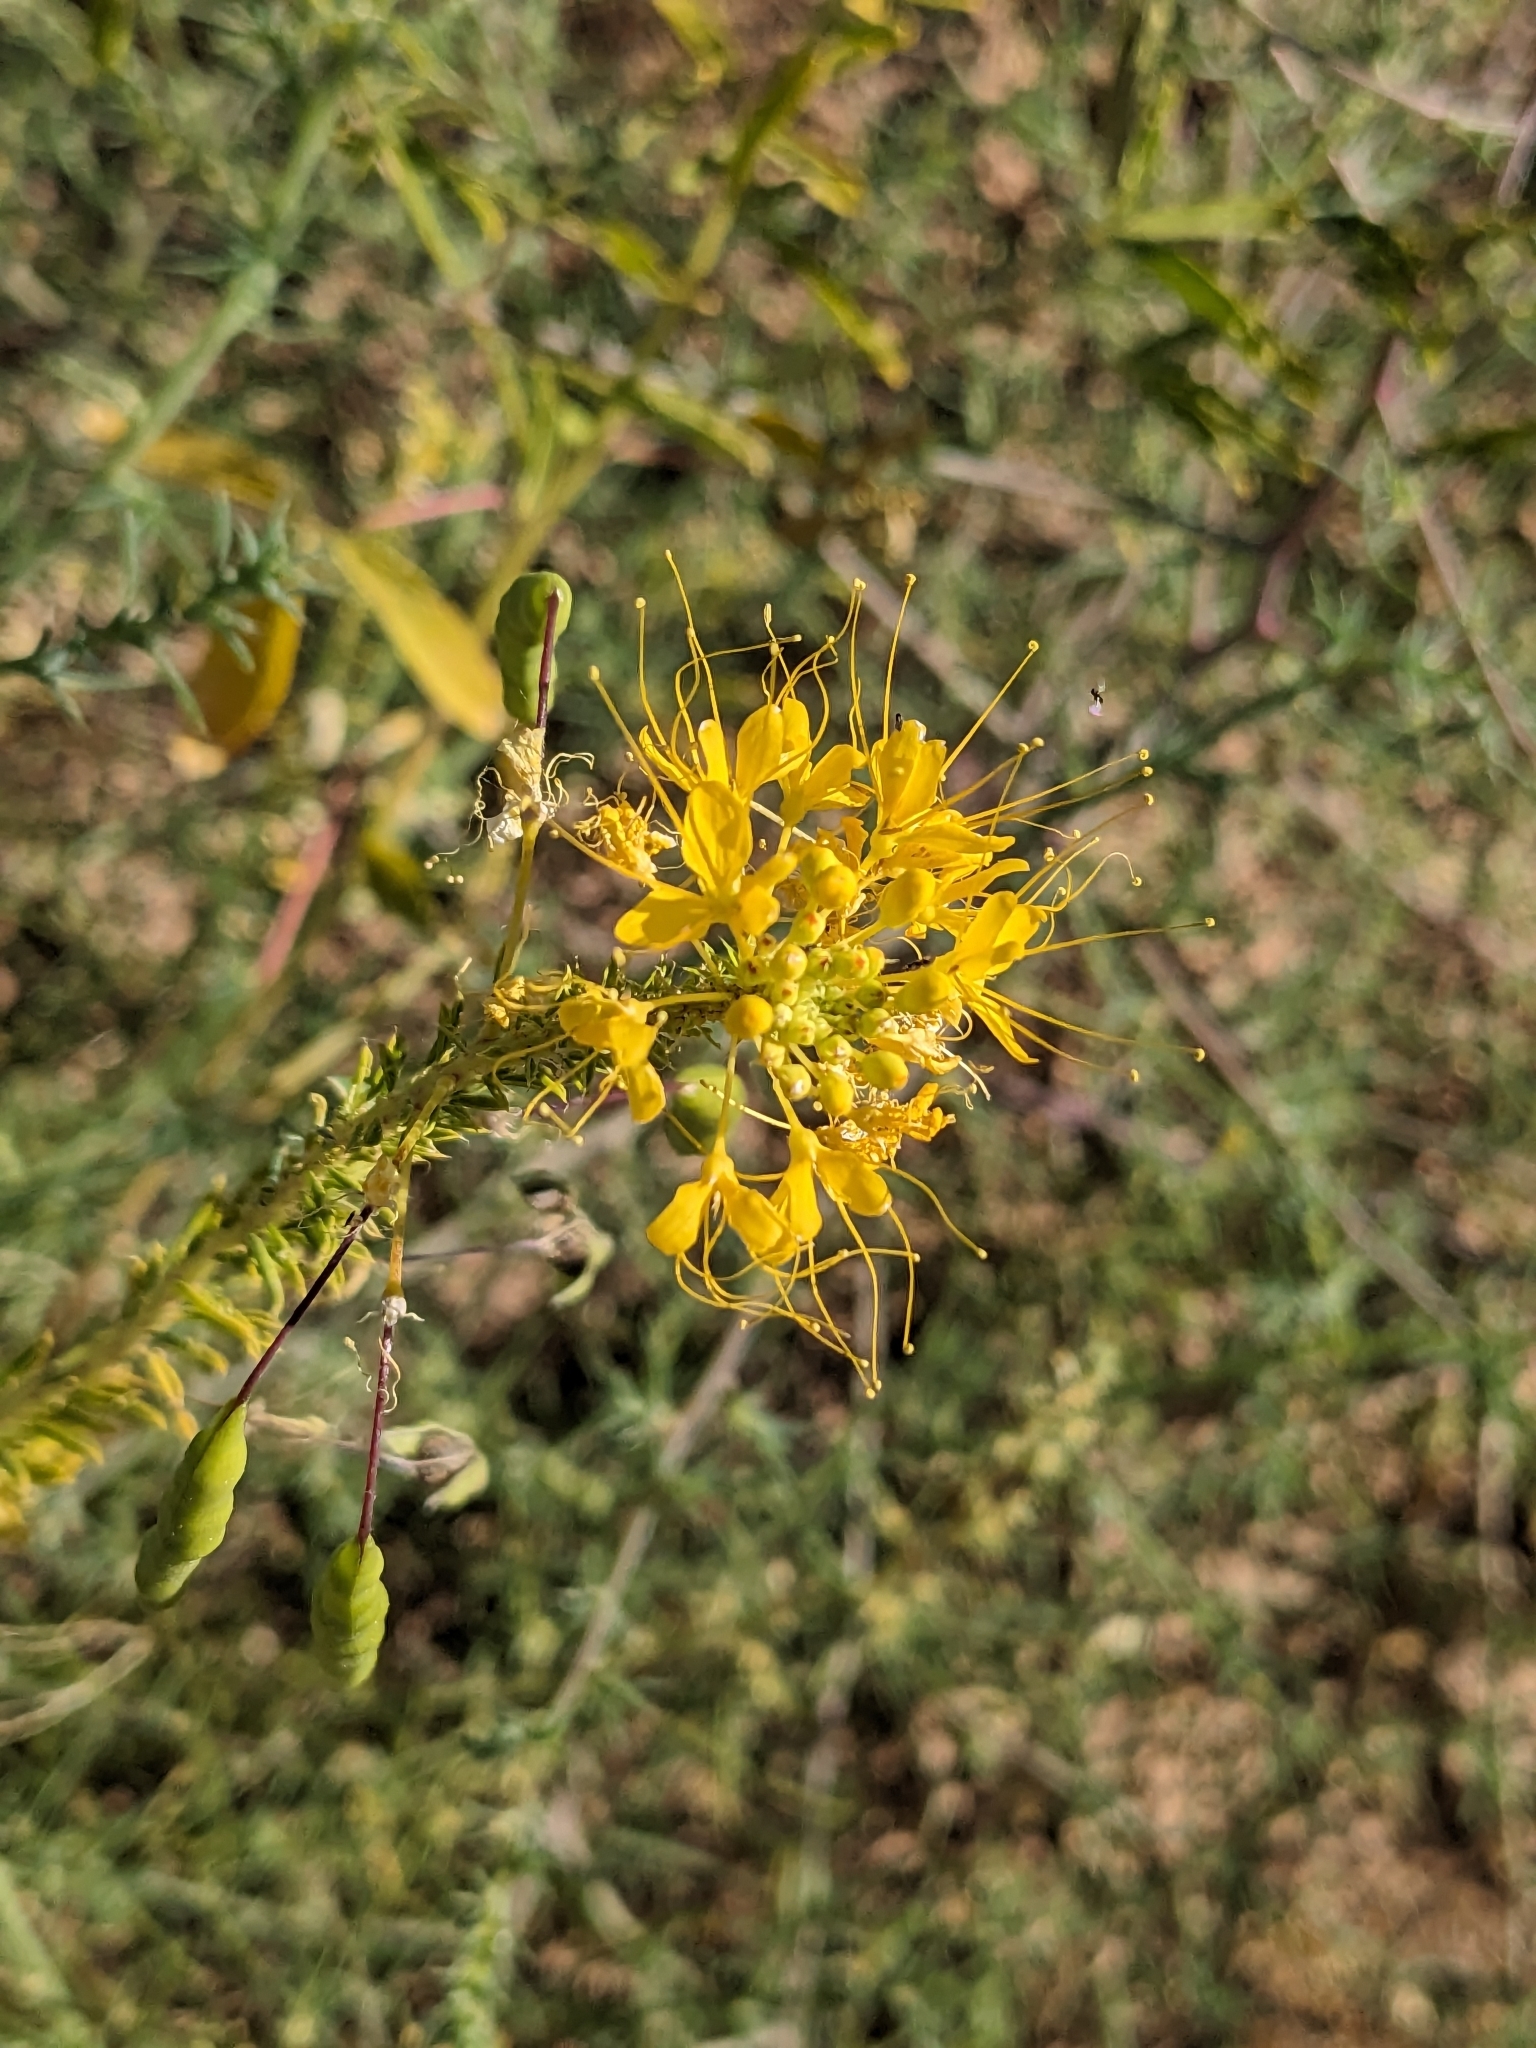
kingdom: Plantae
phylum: Tracheophyta
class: Magnoliopsida
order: Brassicales
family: Cleomaceae
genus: Cleomella
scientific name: Cleomella lutea
